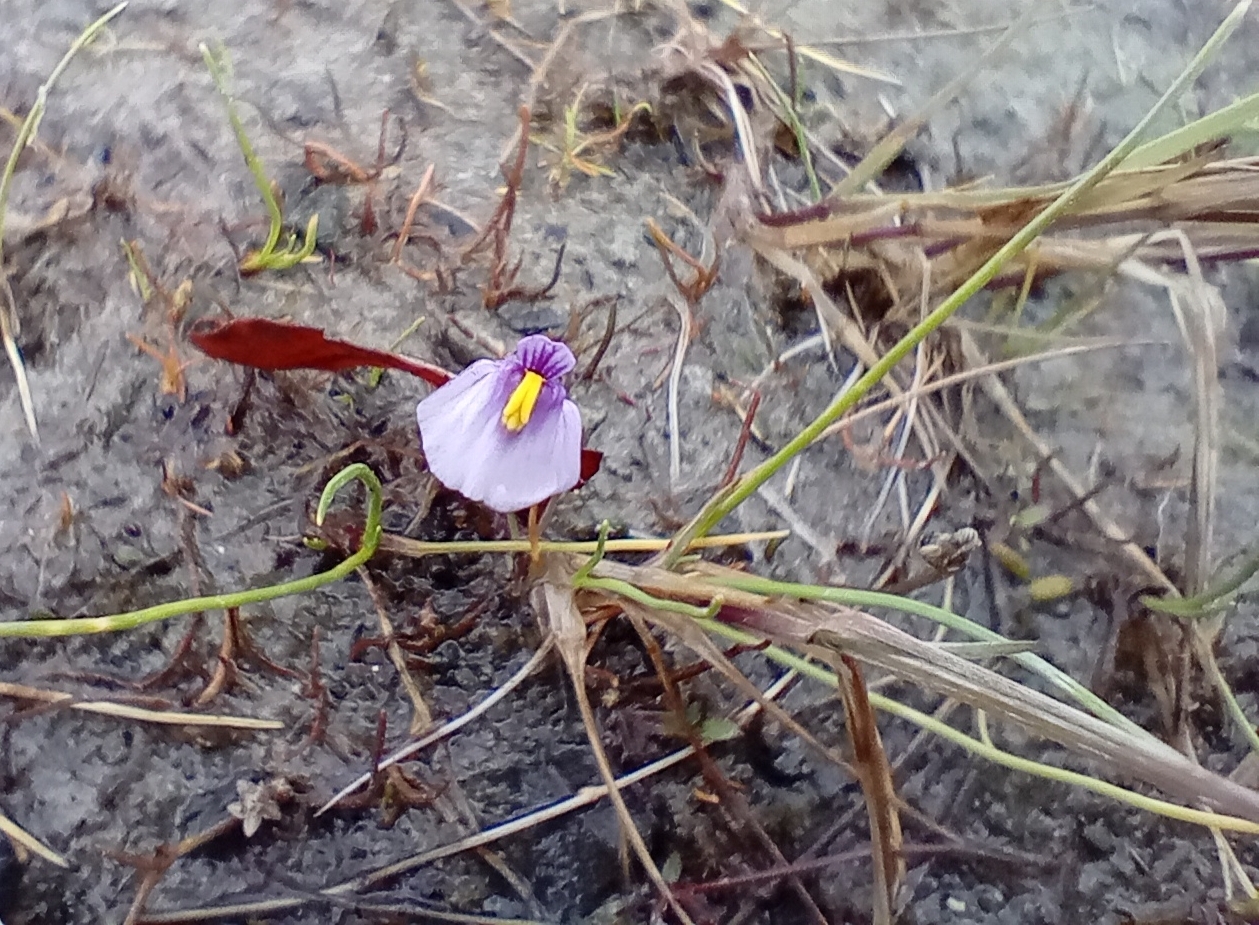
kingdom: Plantae
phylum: Tracheophyta
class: Magnoliopsida
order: Lamiales
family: Lentibulariaceae
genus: Utricularia
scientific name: Utricularia dichotoma
